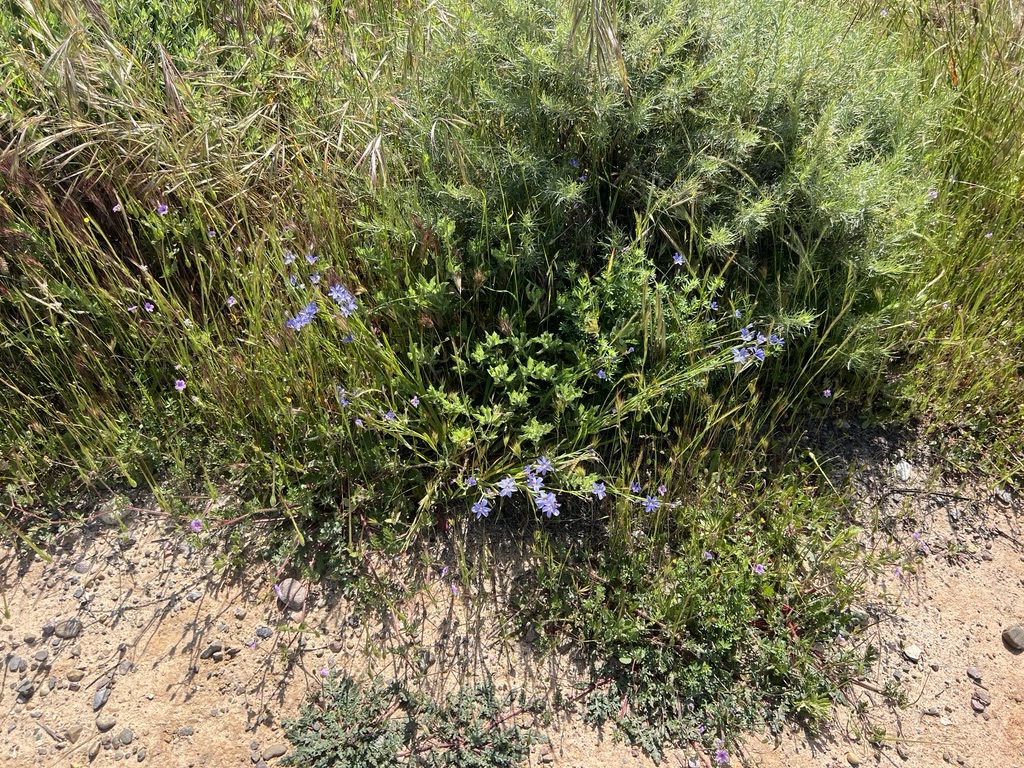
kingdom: Plantae
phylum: Tracheophyta
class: Liliopsida
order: Asparagales
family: Iridaceae
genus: Sisyrinchium
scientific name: Sisyrinchium bellum
